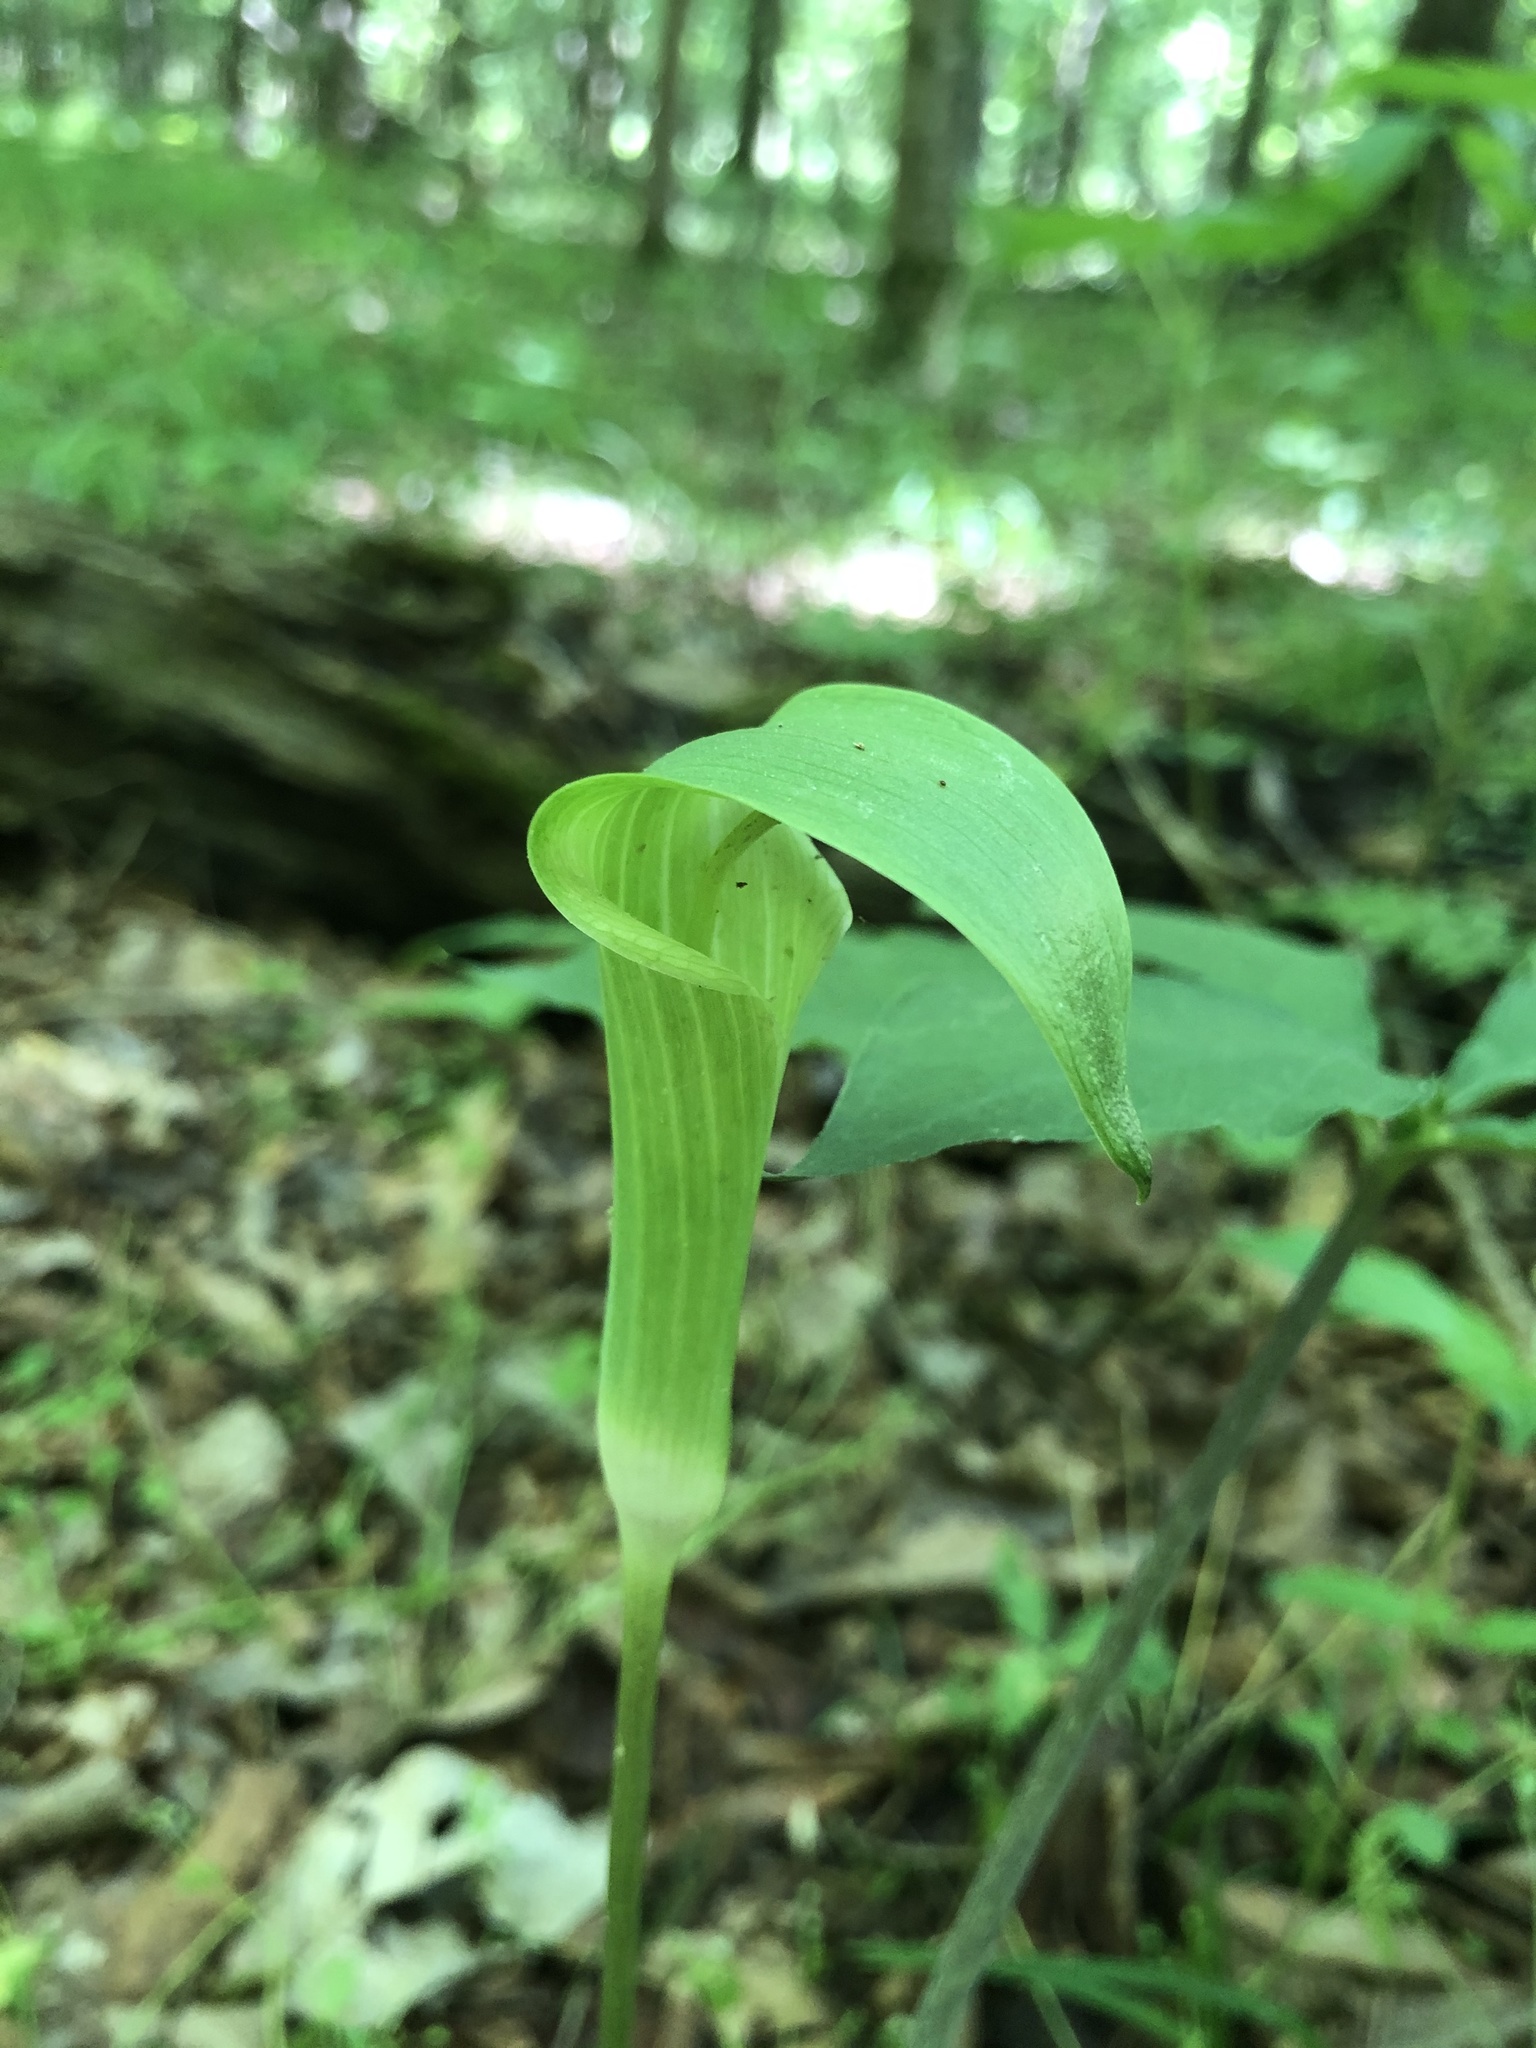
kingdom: Plantae
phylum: Tracheophyta
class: Liliopsida
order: Alismatales
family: Araceae
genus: Arisaema
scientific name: Arisaema quinatum
